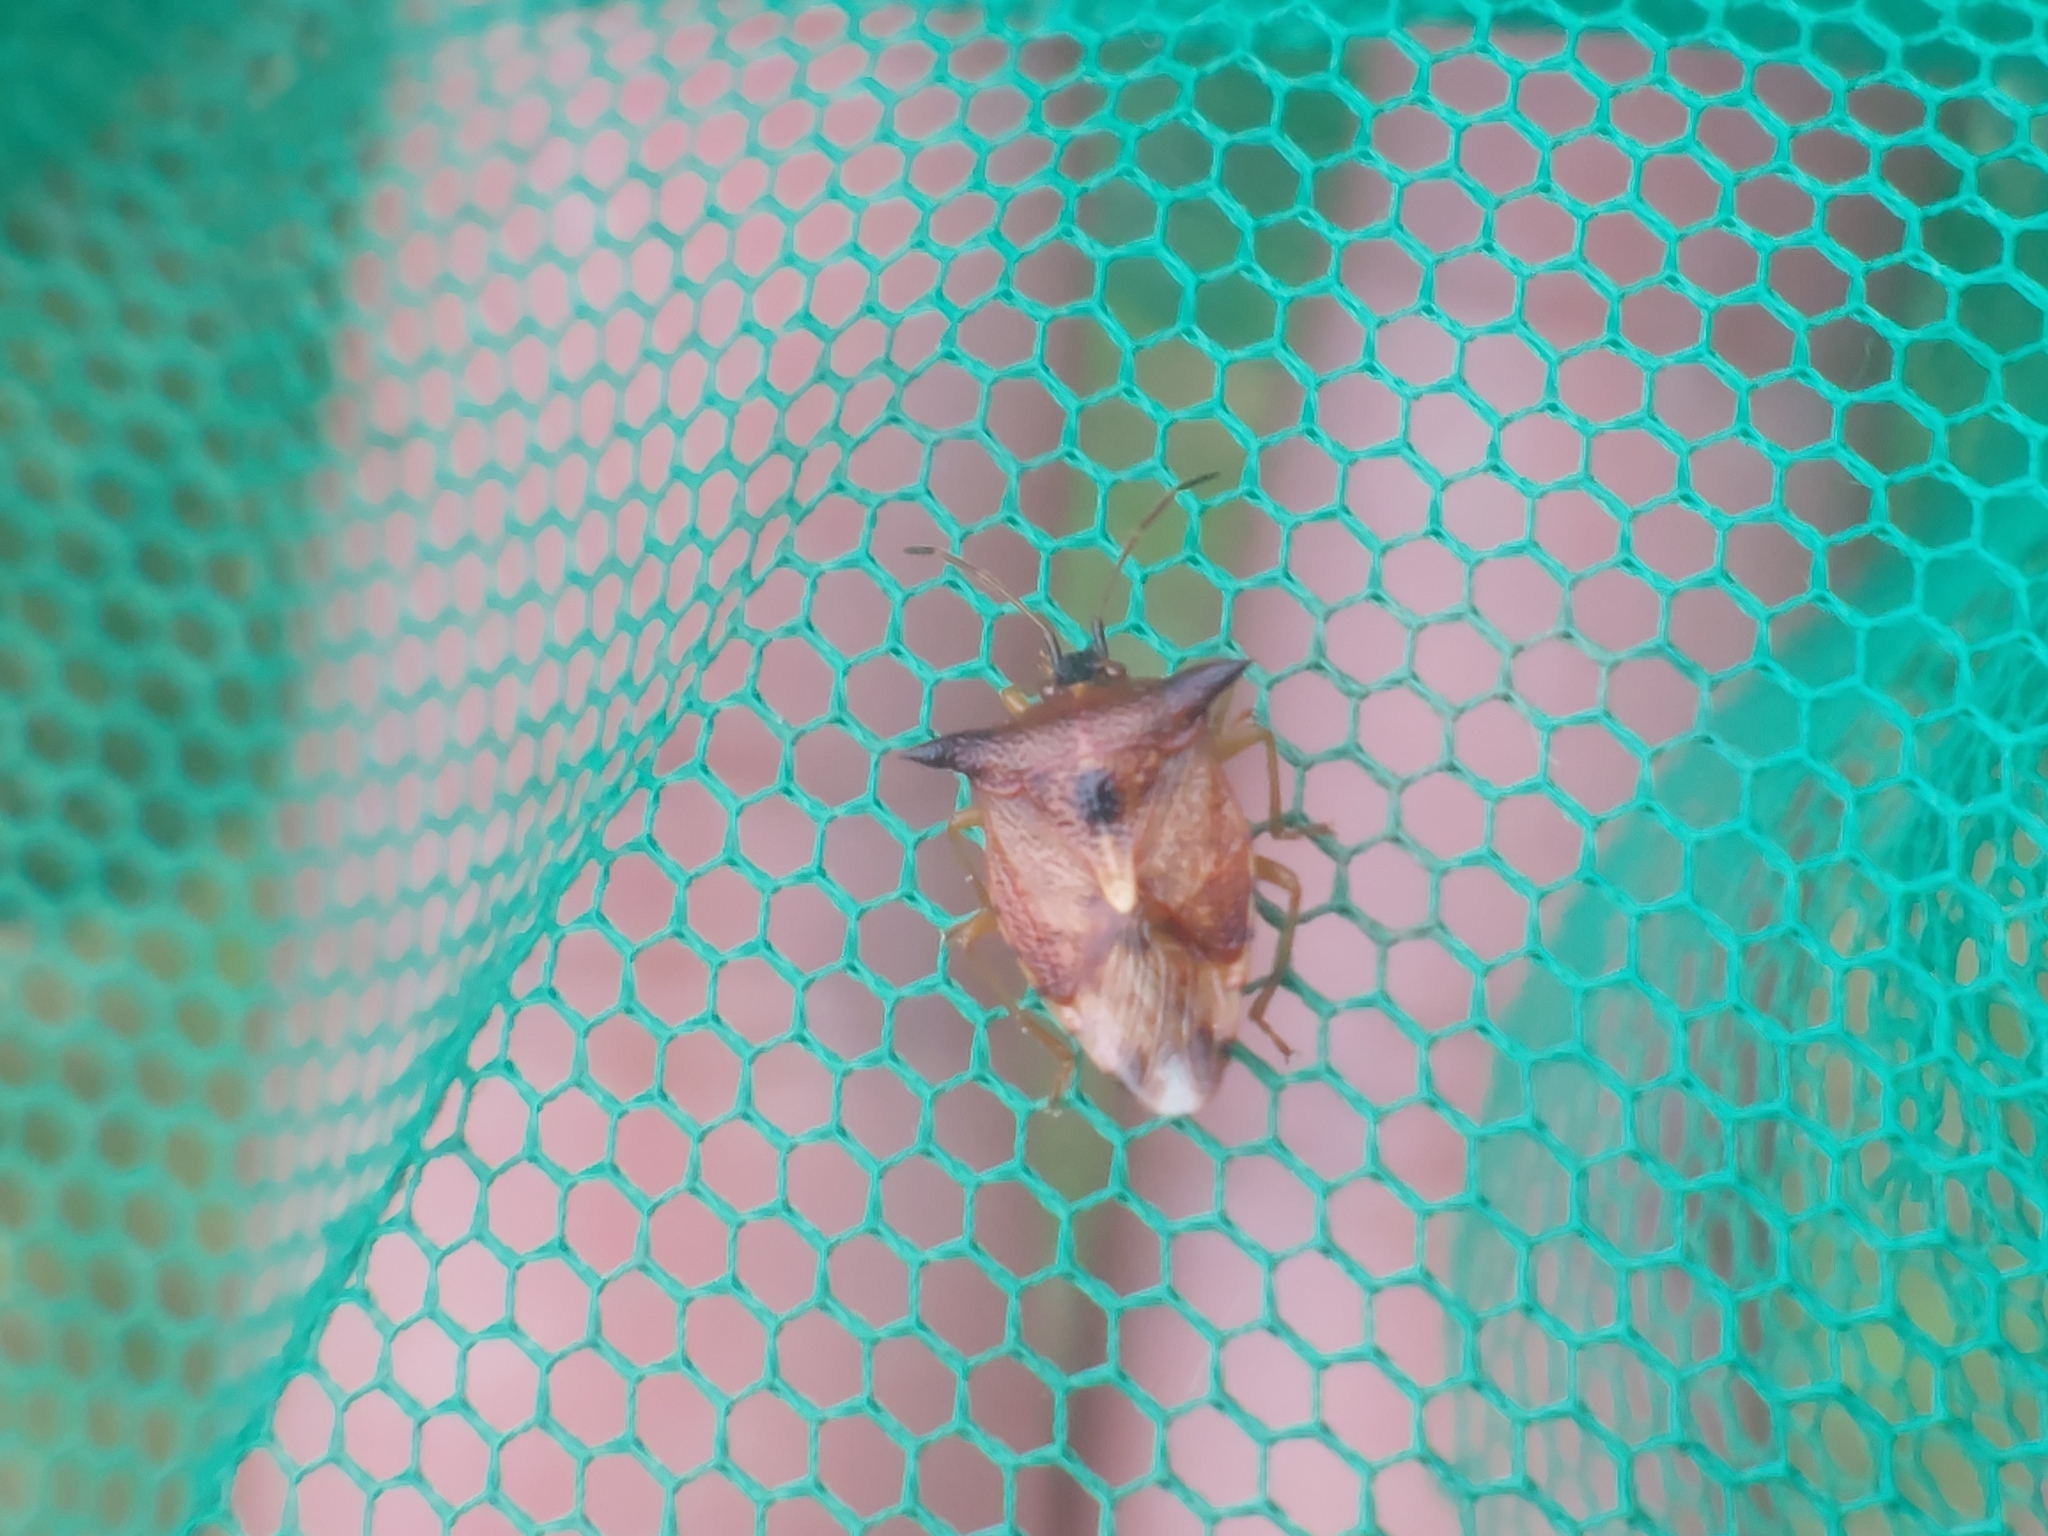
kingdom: Animalia
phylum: Arthropoda
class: Insecta
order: Hemiptera
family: Acanthosomatidae
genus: Elasmucha
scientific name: Elasmucha ferrugata
